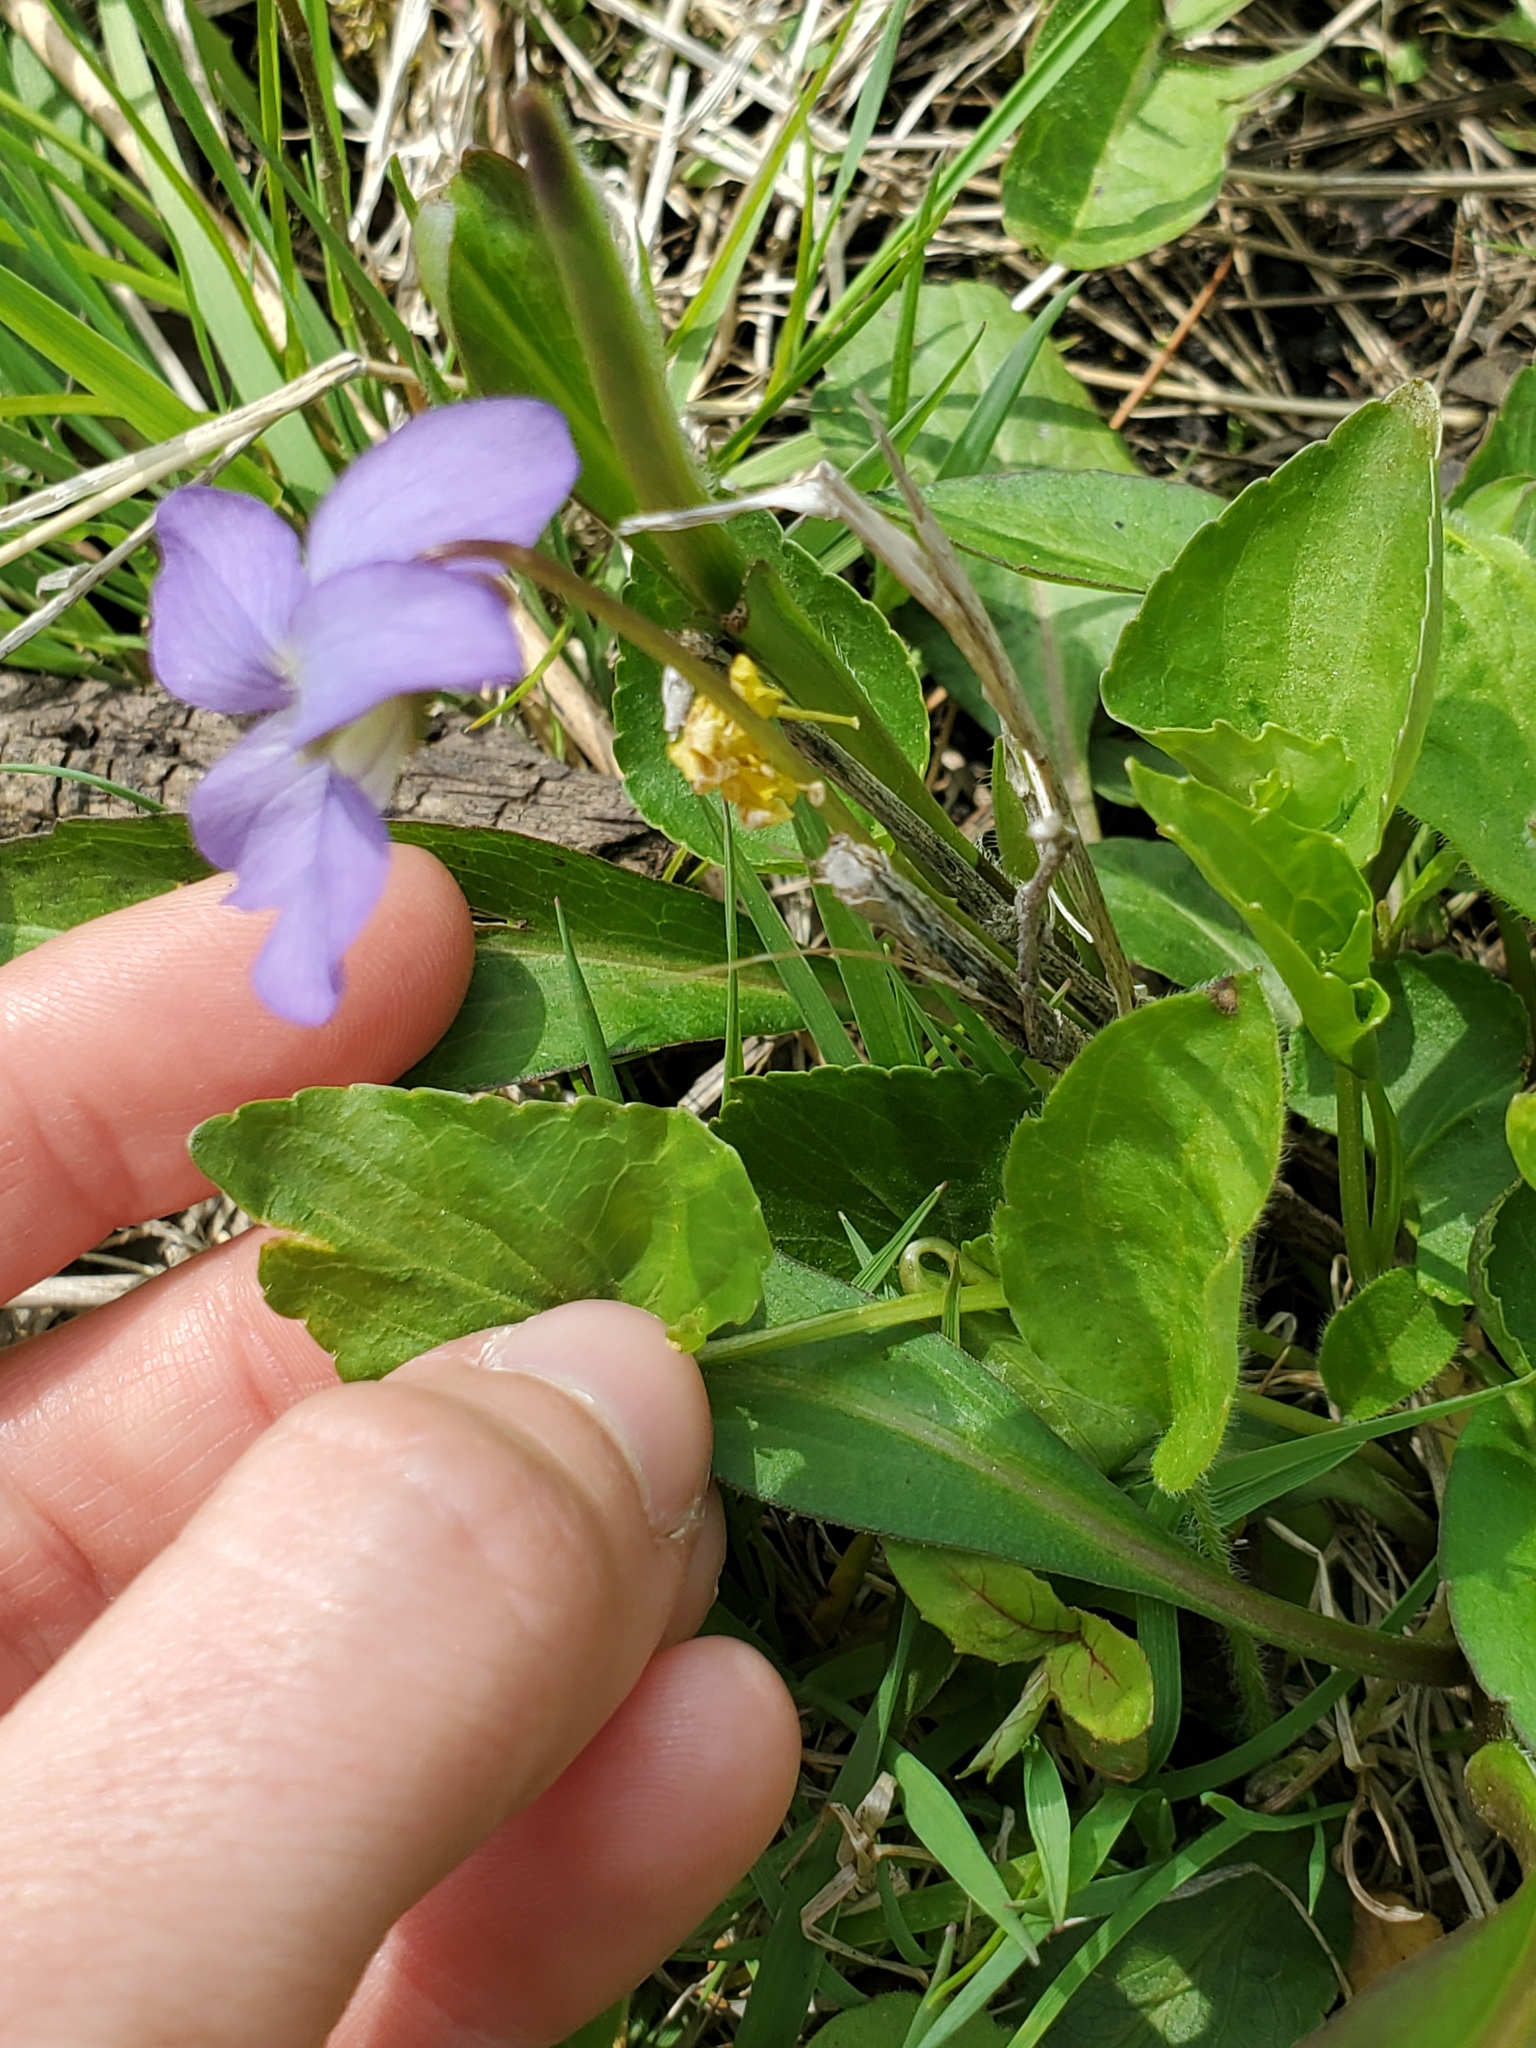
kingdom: Plantae
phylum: Tracheophyta
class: Magnoliopsida
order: Malpighiales
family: Violaceae
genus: Viola
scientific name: Viola cucullata
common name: Marsh blue violet
